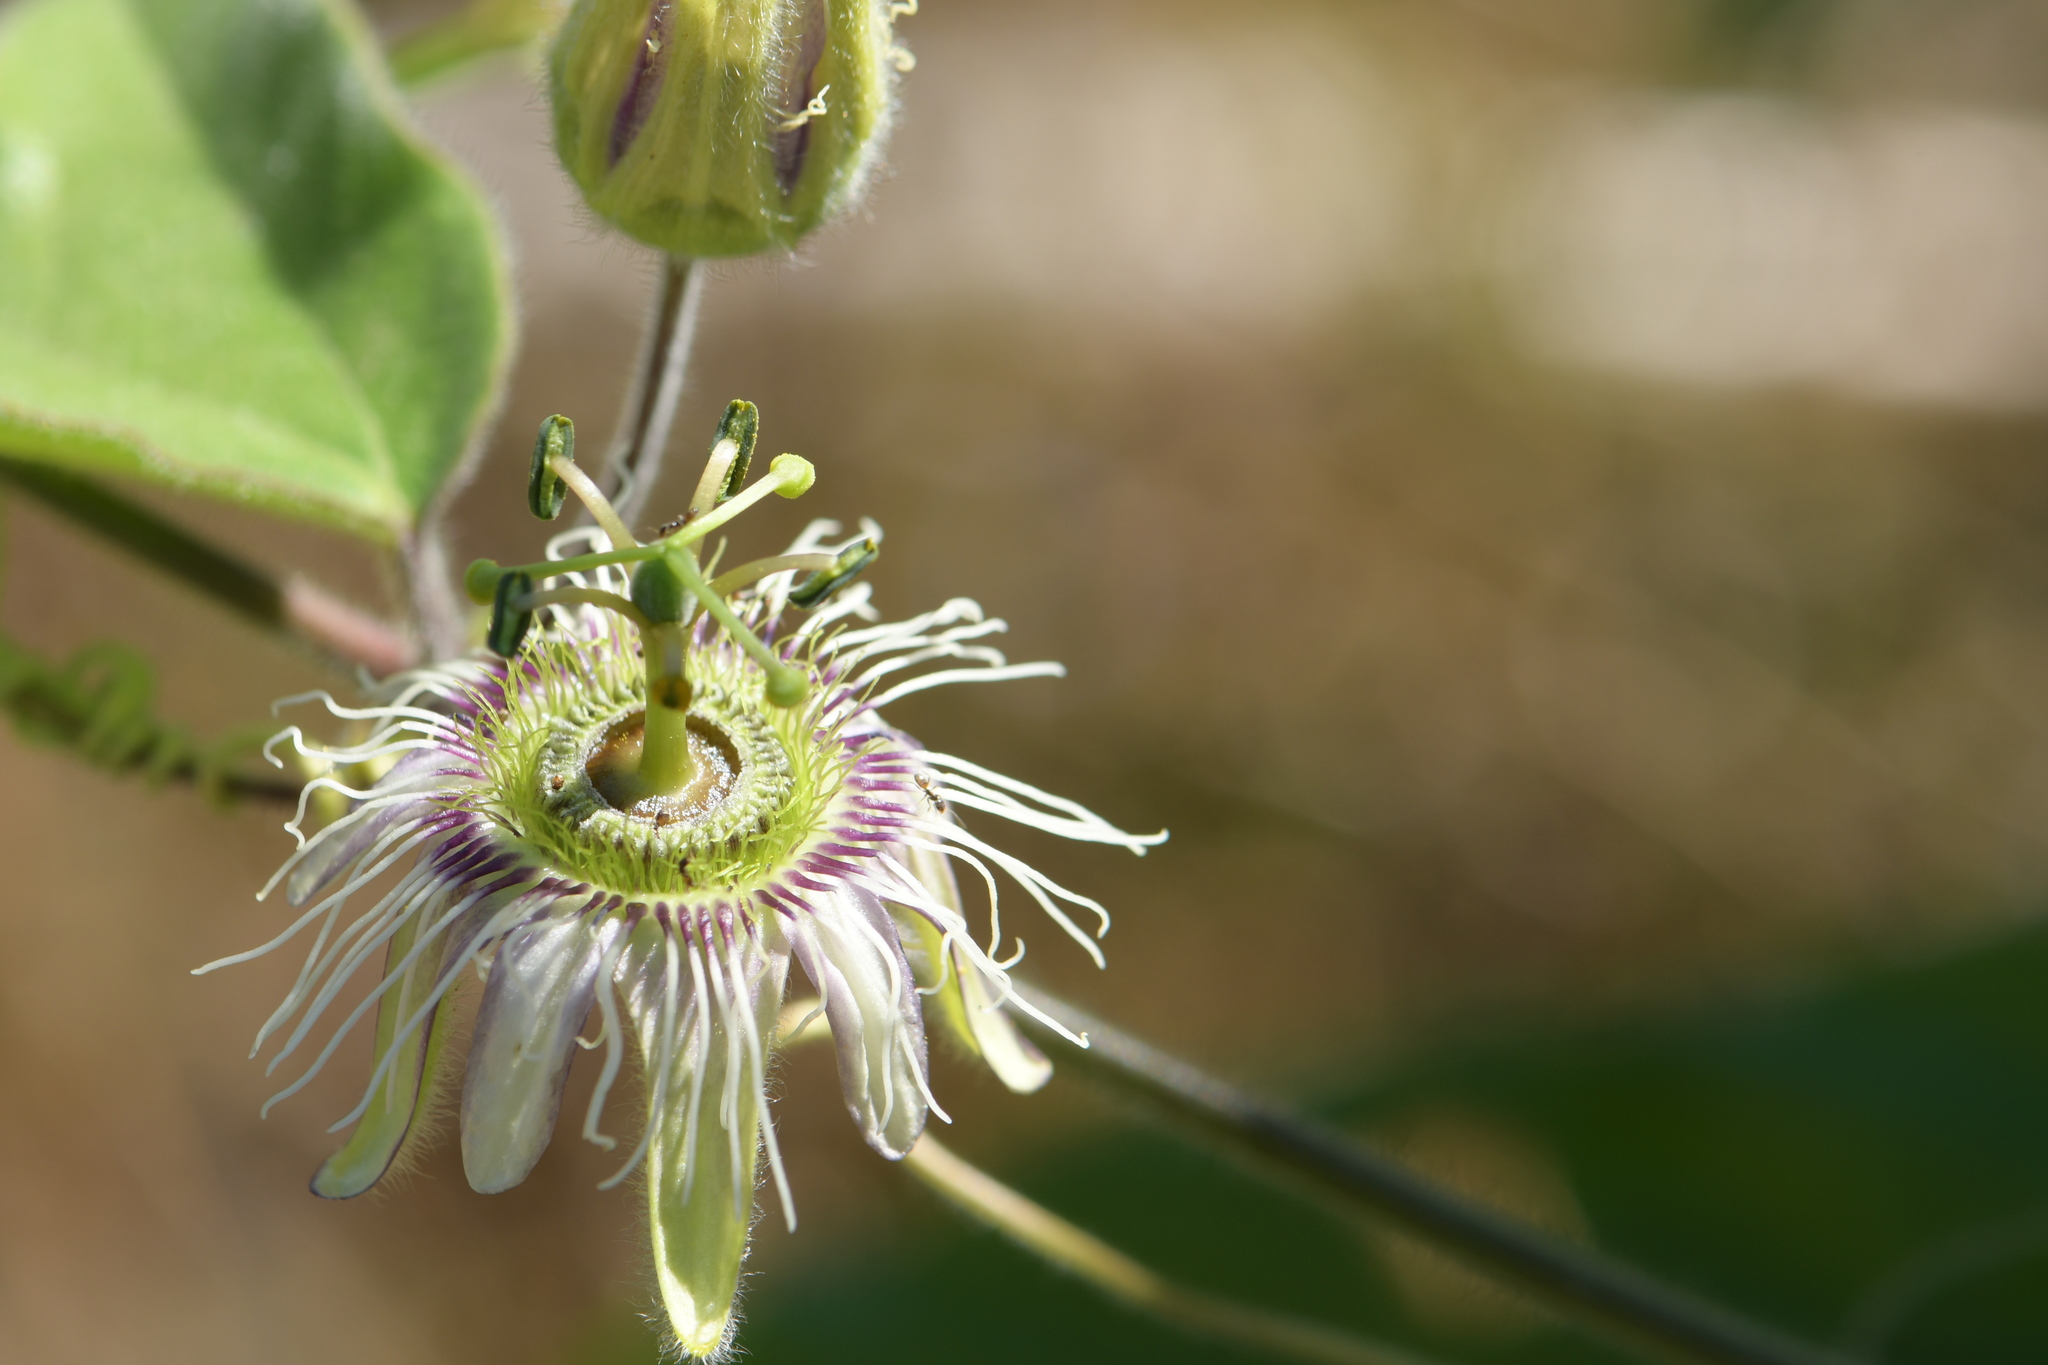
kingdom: Plantae
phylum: Tracheophyta
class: Magnoliopsida
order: Malpighiales
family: Passifloraceae
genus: Passiflora
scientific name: Passiflora porphyretica
